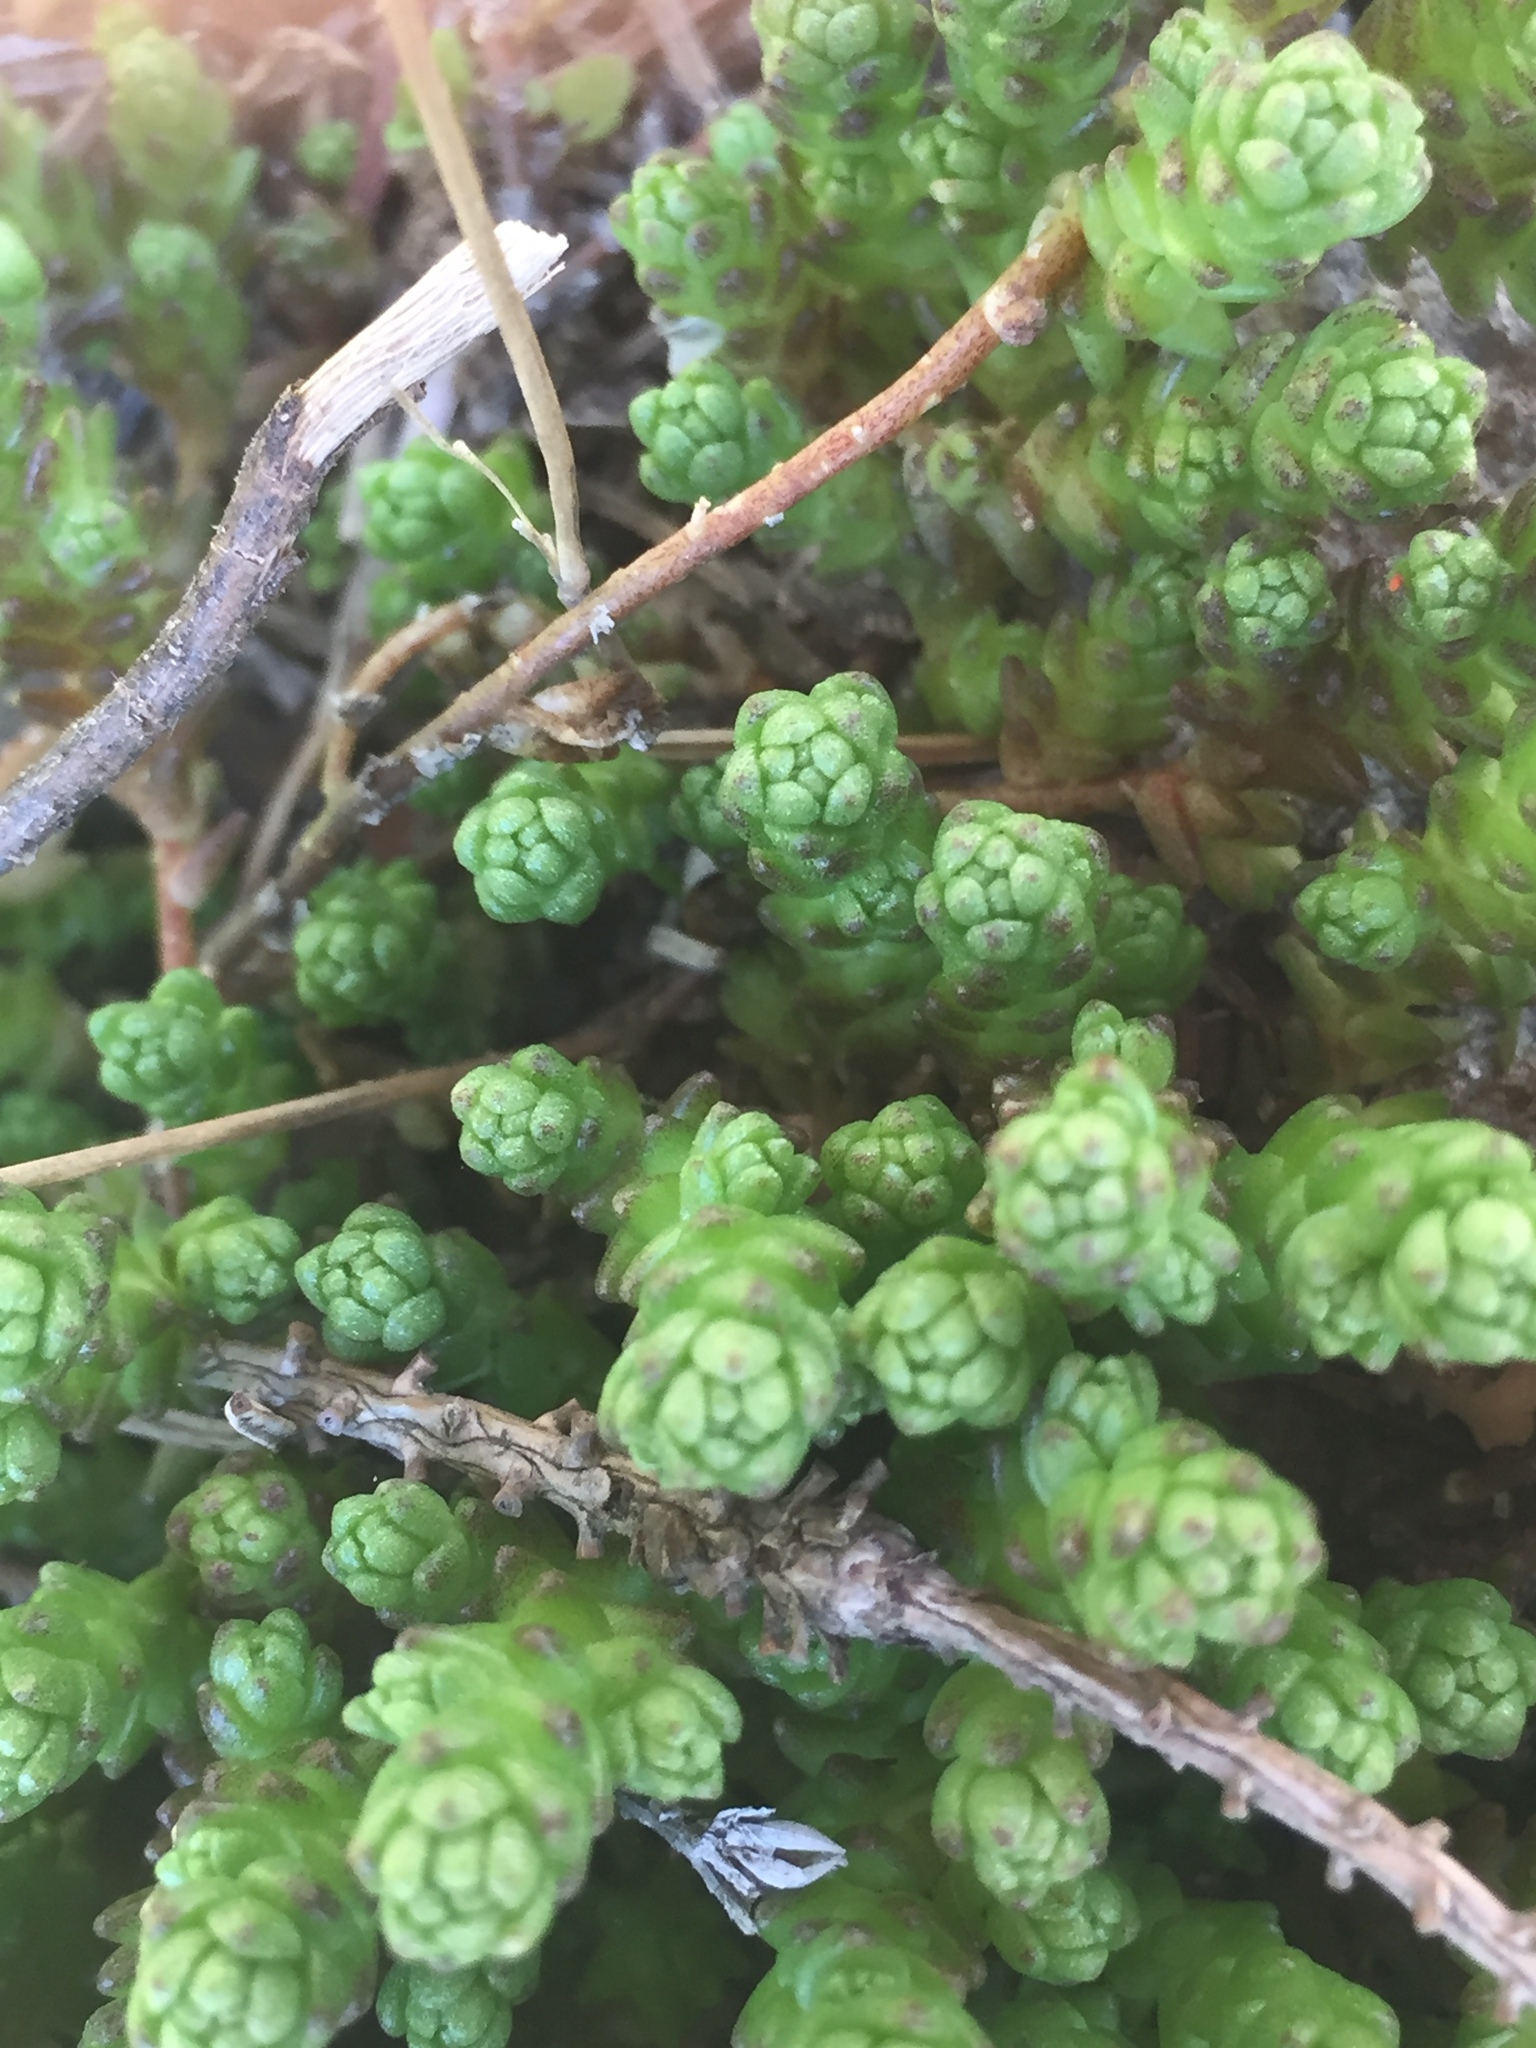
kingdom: Plantae
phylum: Tracheophyta
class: Magnoliopsida
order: Saxifragales
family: Crassulaceae
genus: Sedum
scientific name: Sedum acre
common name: Biting stonecrop
